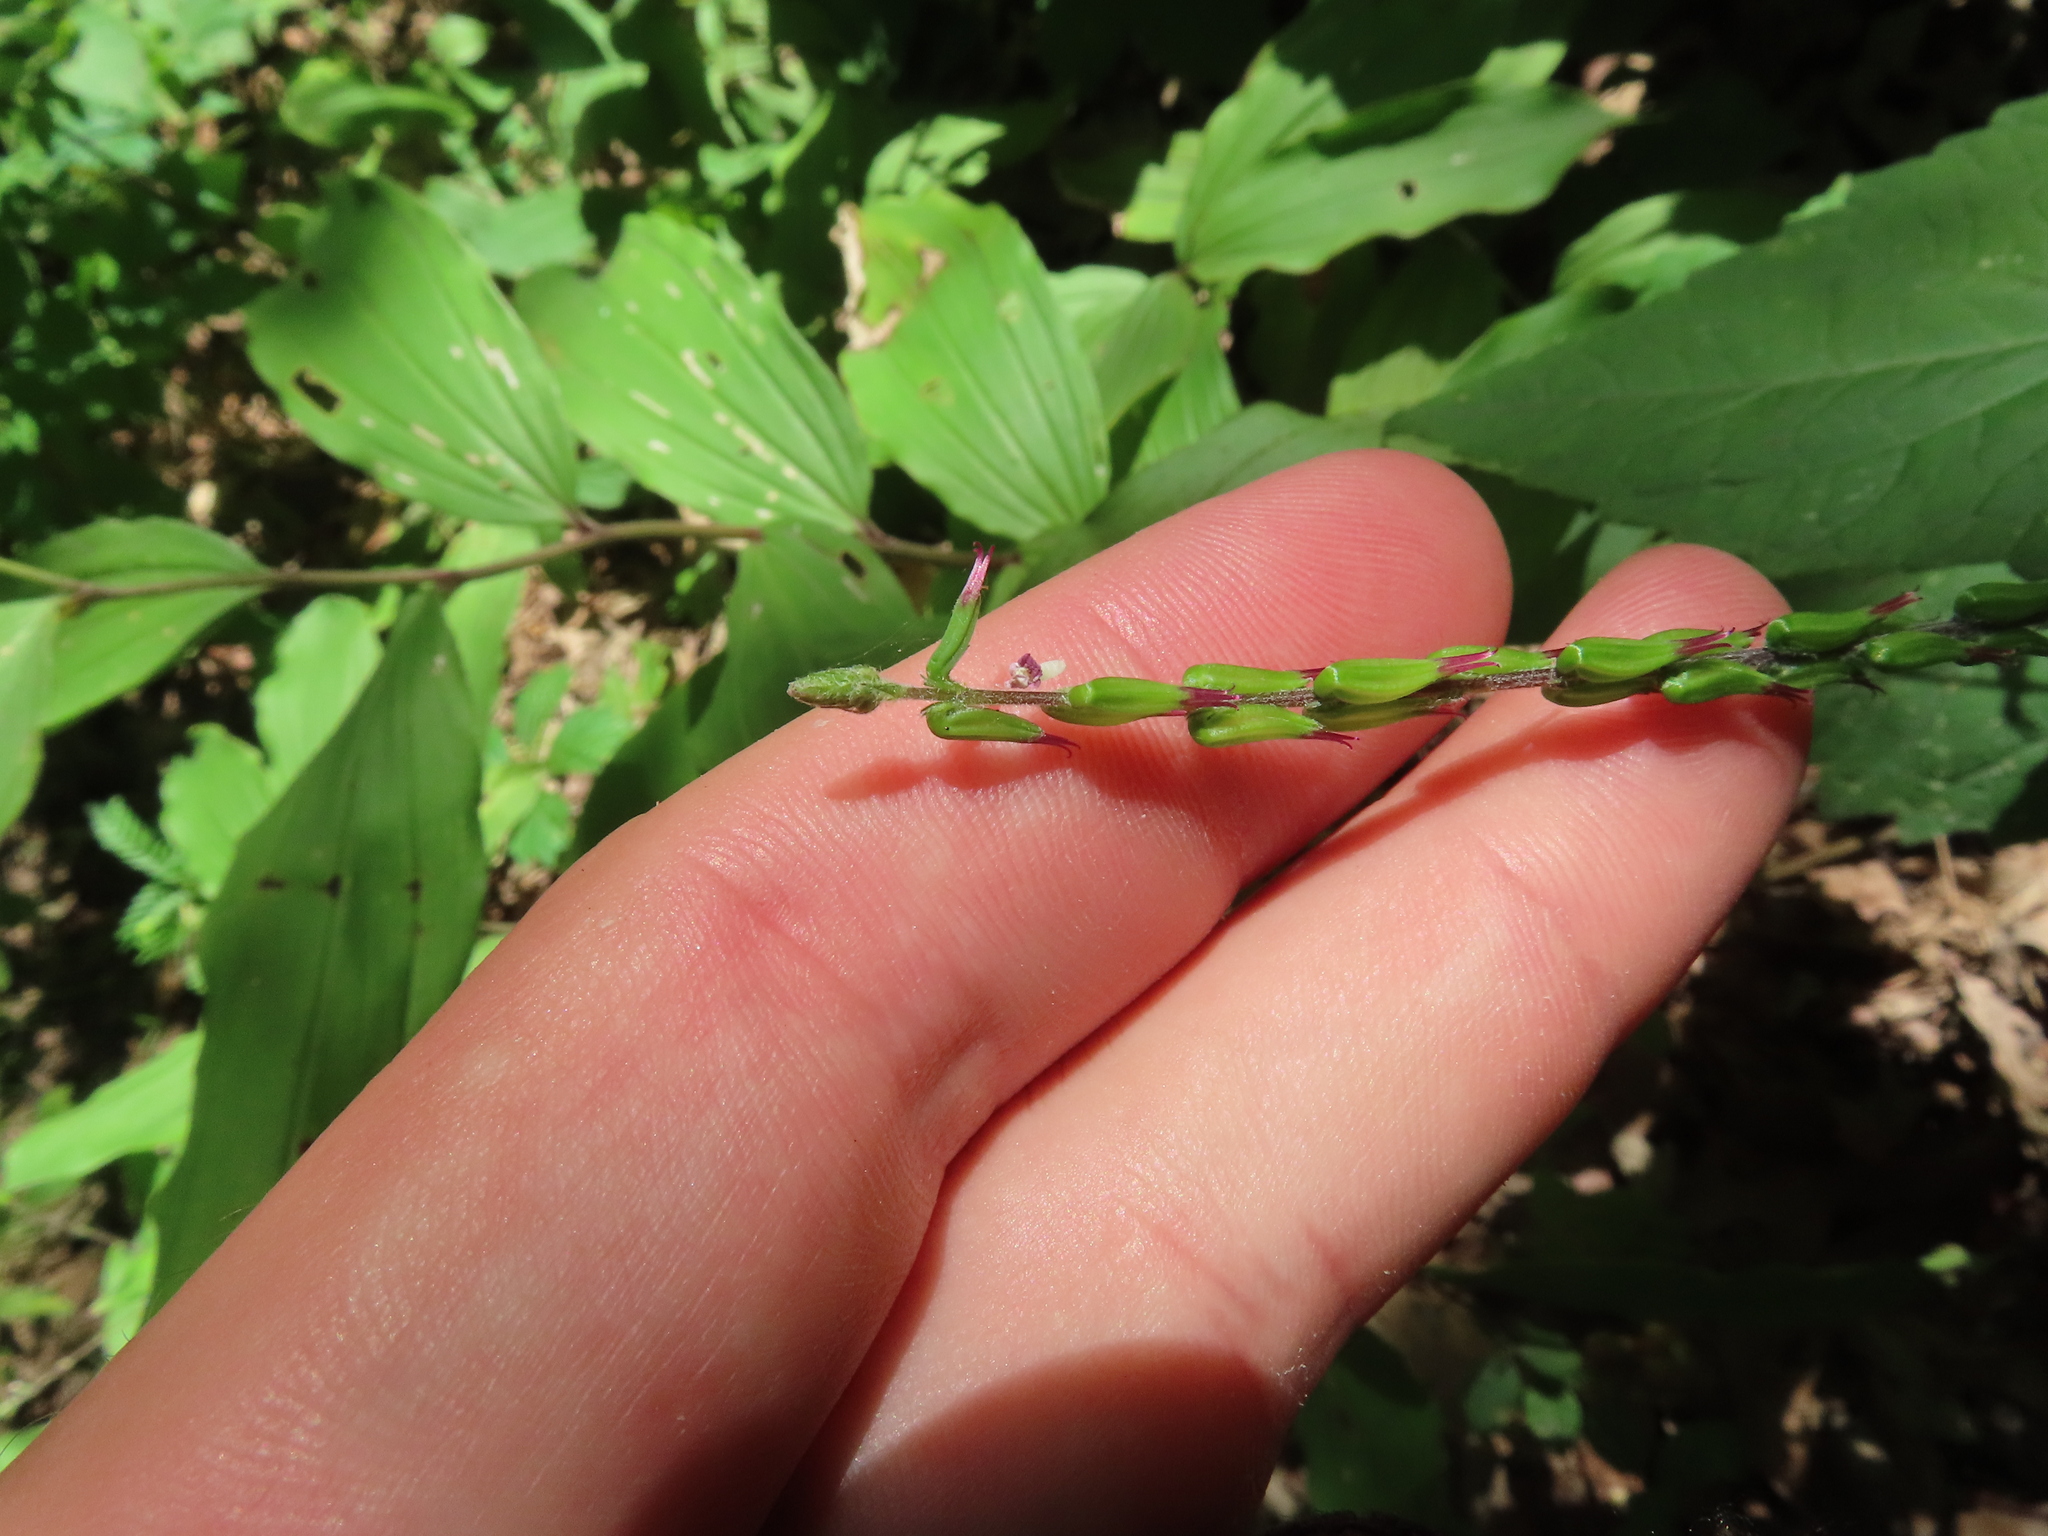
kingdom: Plantae
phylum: Tracheophyta
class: Magnoliopsida
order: Lamiales
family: Phrymaceae
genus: Phryma
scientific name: Phryma leptostachya
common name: American lopseed
